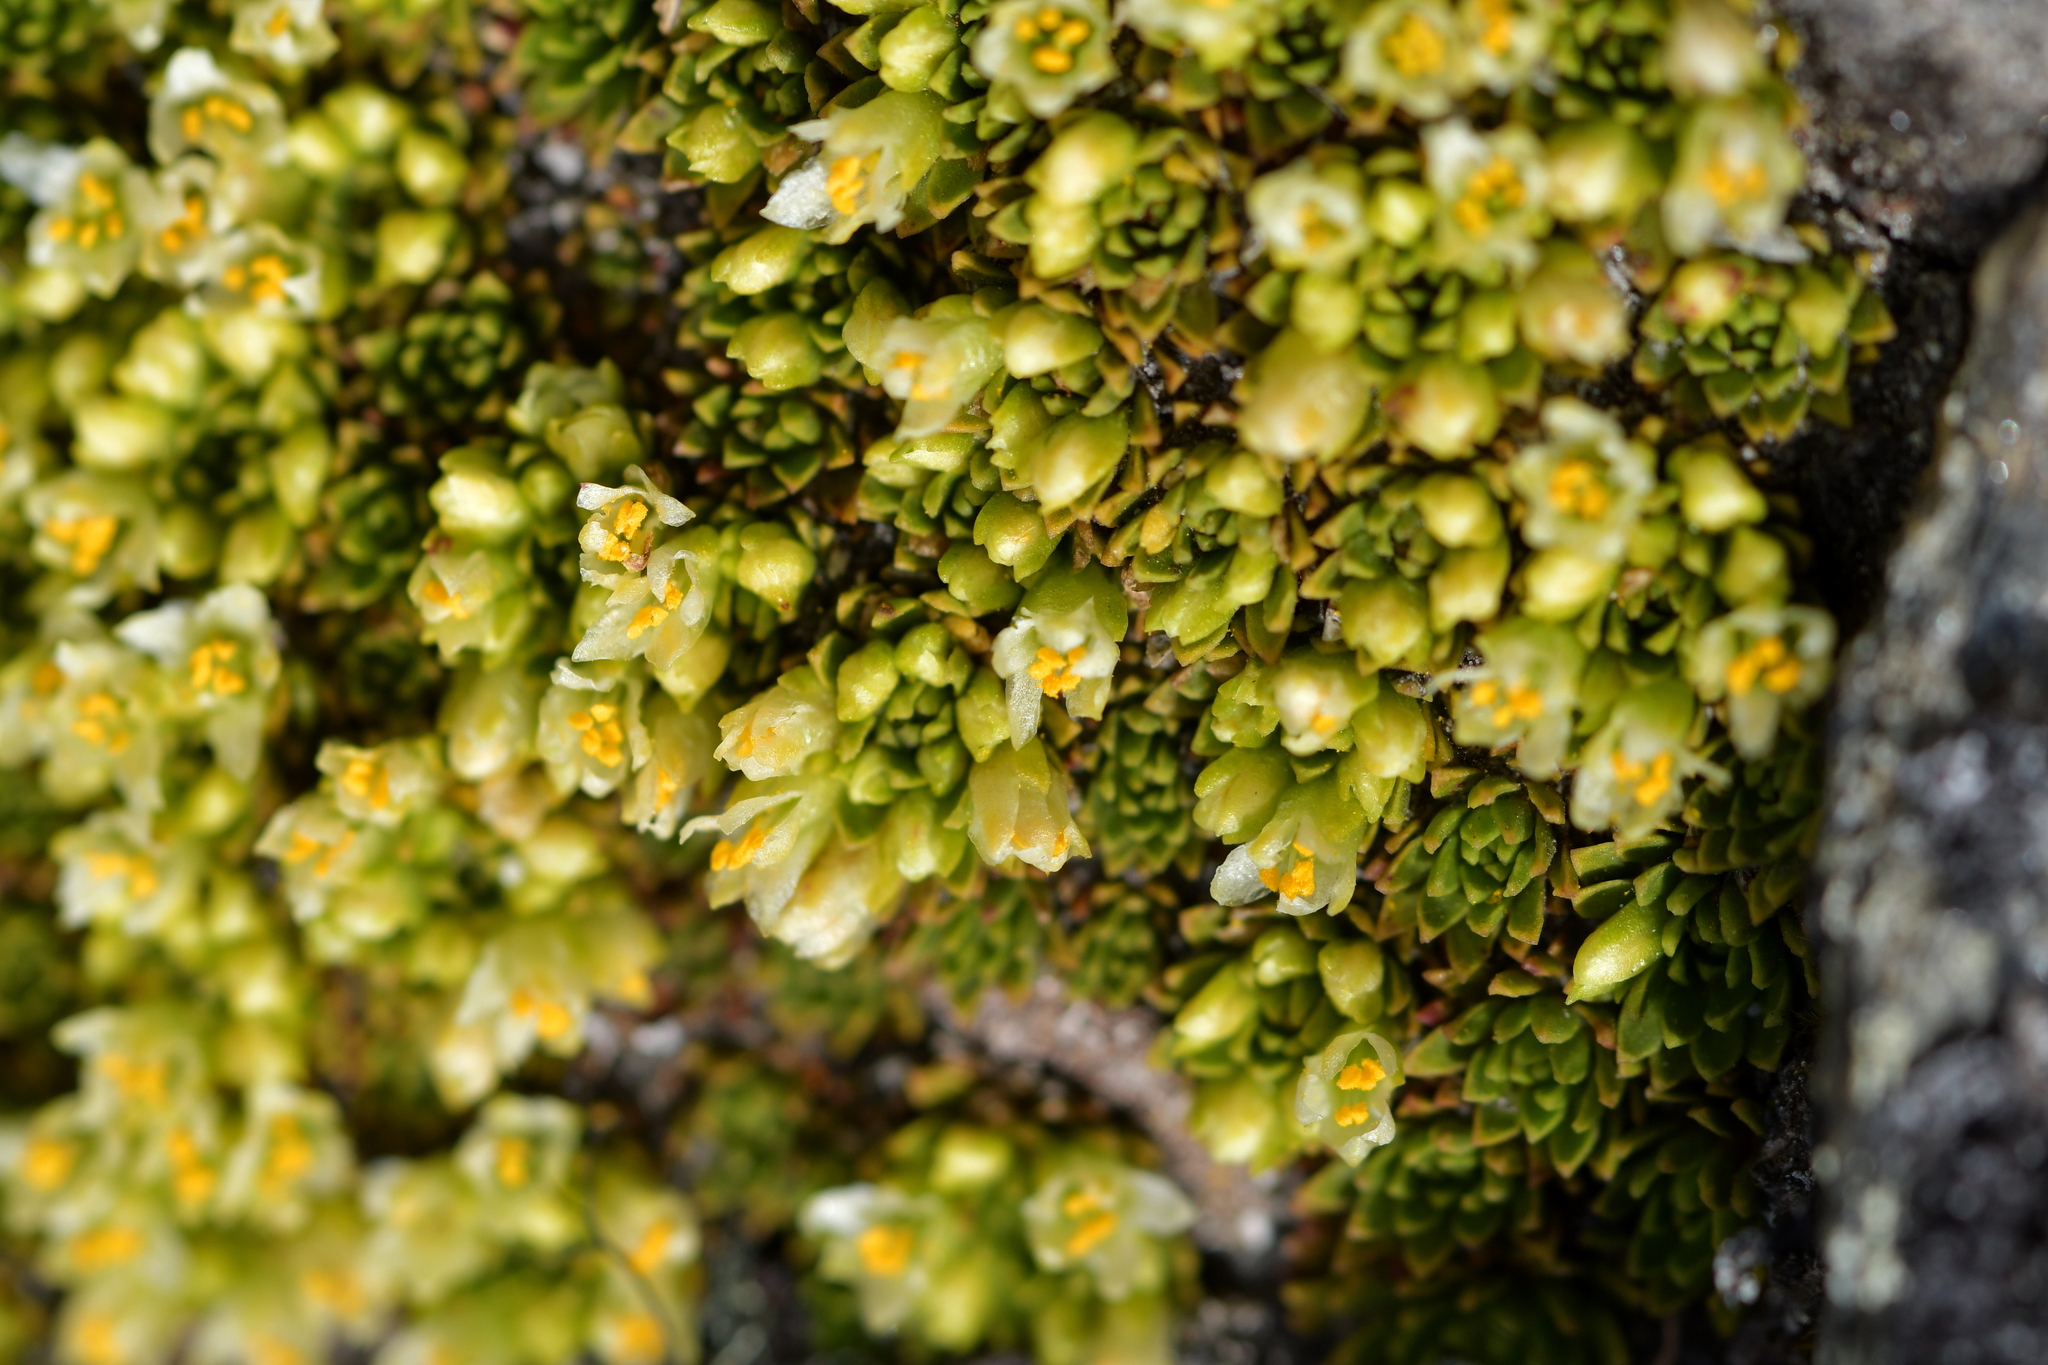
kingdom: Plantae
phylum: Tracheophyta
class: Magnoliopsida
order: Caryophyllales
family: Montiaceae
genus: Hectorella
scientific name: Hectorella caespitosa
